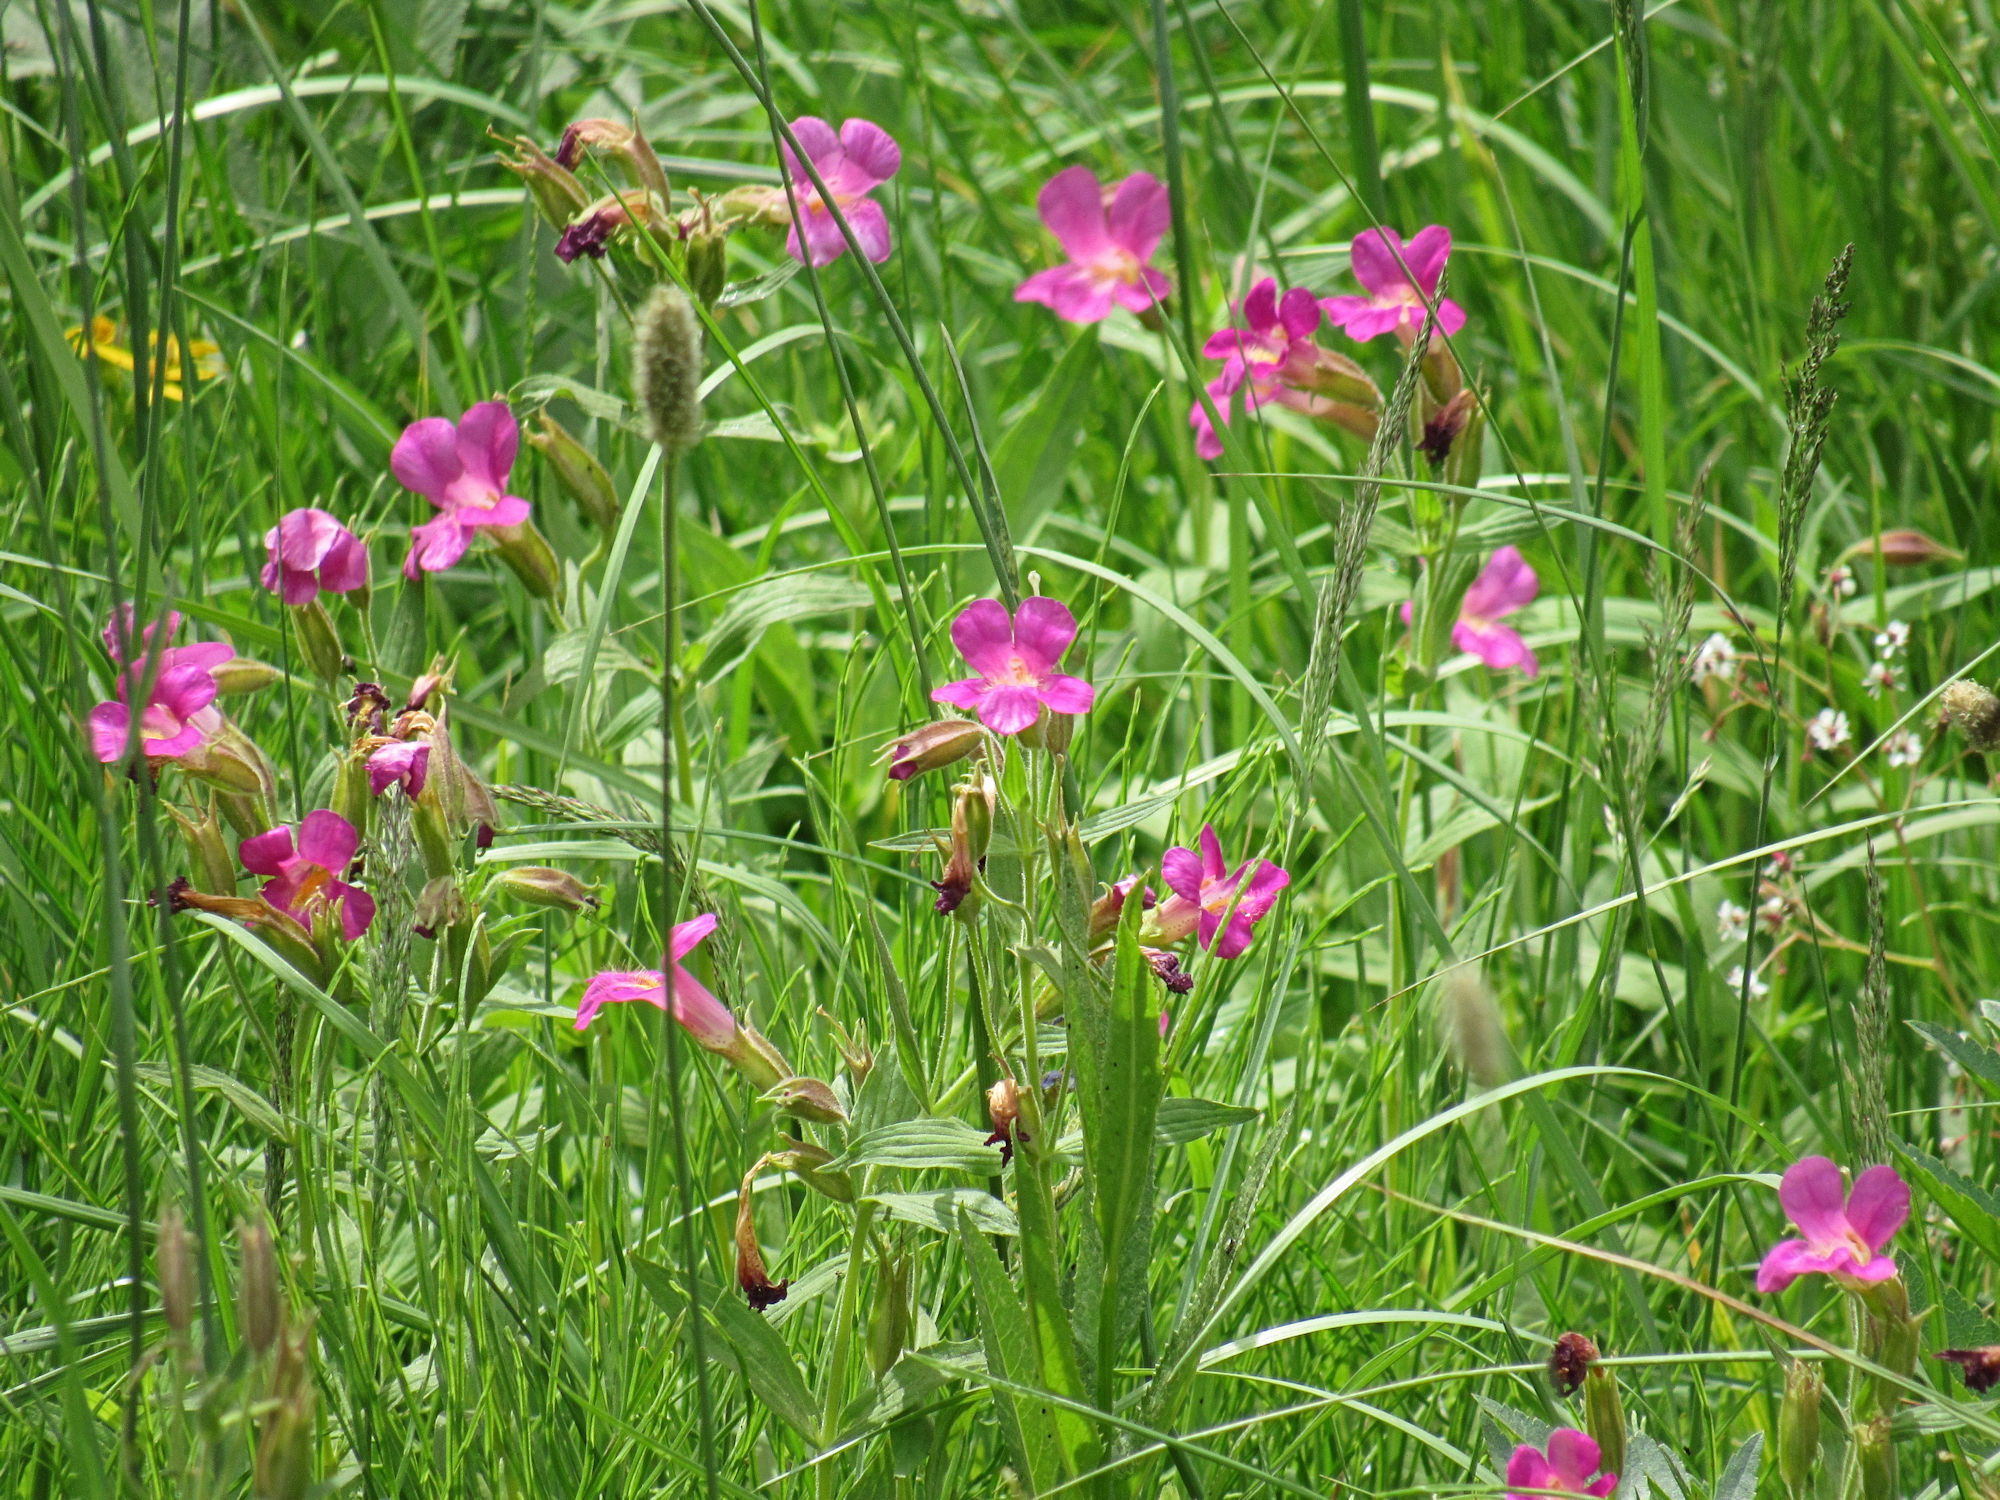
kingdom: Plantae
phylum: Tracheophyta
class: Magnoliopsida
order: Lamiales
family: Phrymaceae
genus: Erythranthe
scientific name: Erythranthe lewisii
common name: Lewis's monkey-flower
